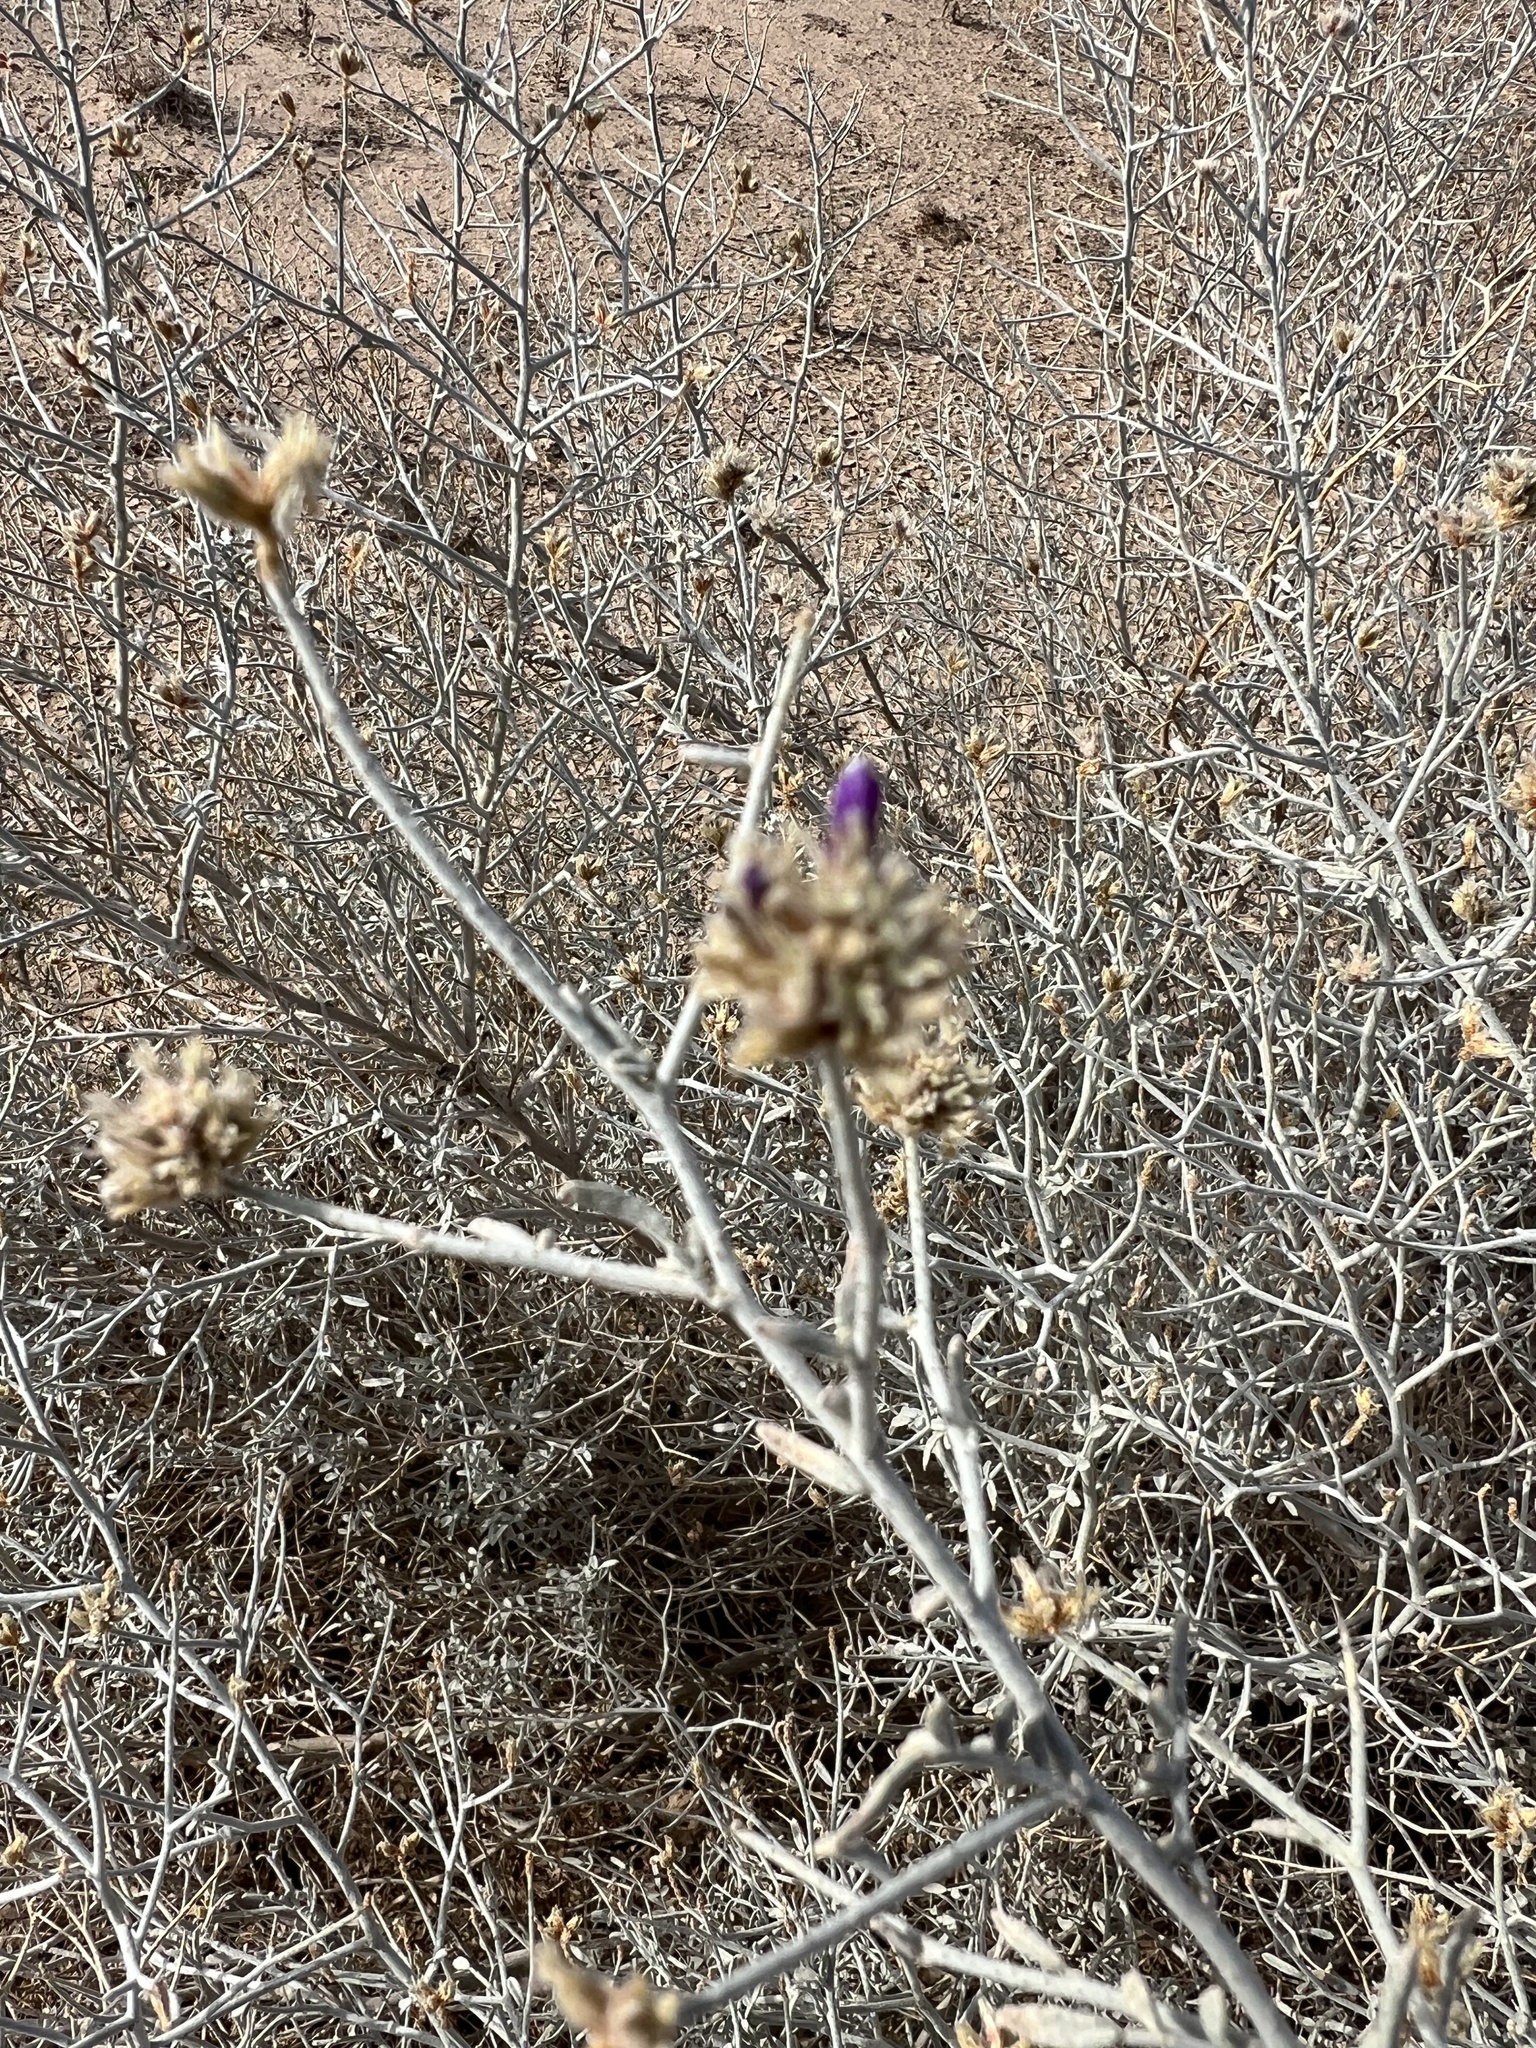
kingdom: Plantae
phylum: Tracheophyta
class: Magnoliopsida
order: Fabales
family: Fabaceae
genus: Psorothamnus
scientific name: Psorothamnus emoryi
